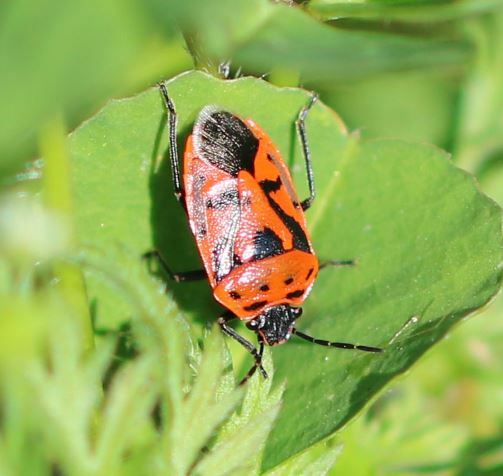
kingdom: Animalia
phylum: Arthropoda
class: Insecta
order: Hemiptera
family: Pentatomidae
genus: Eurydema
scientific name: Eurydema ornata
